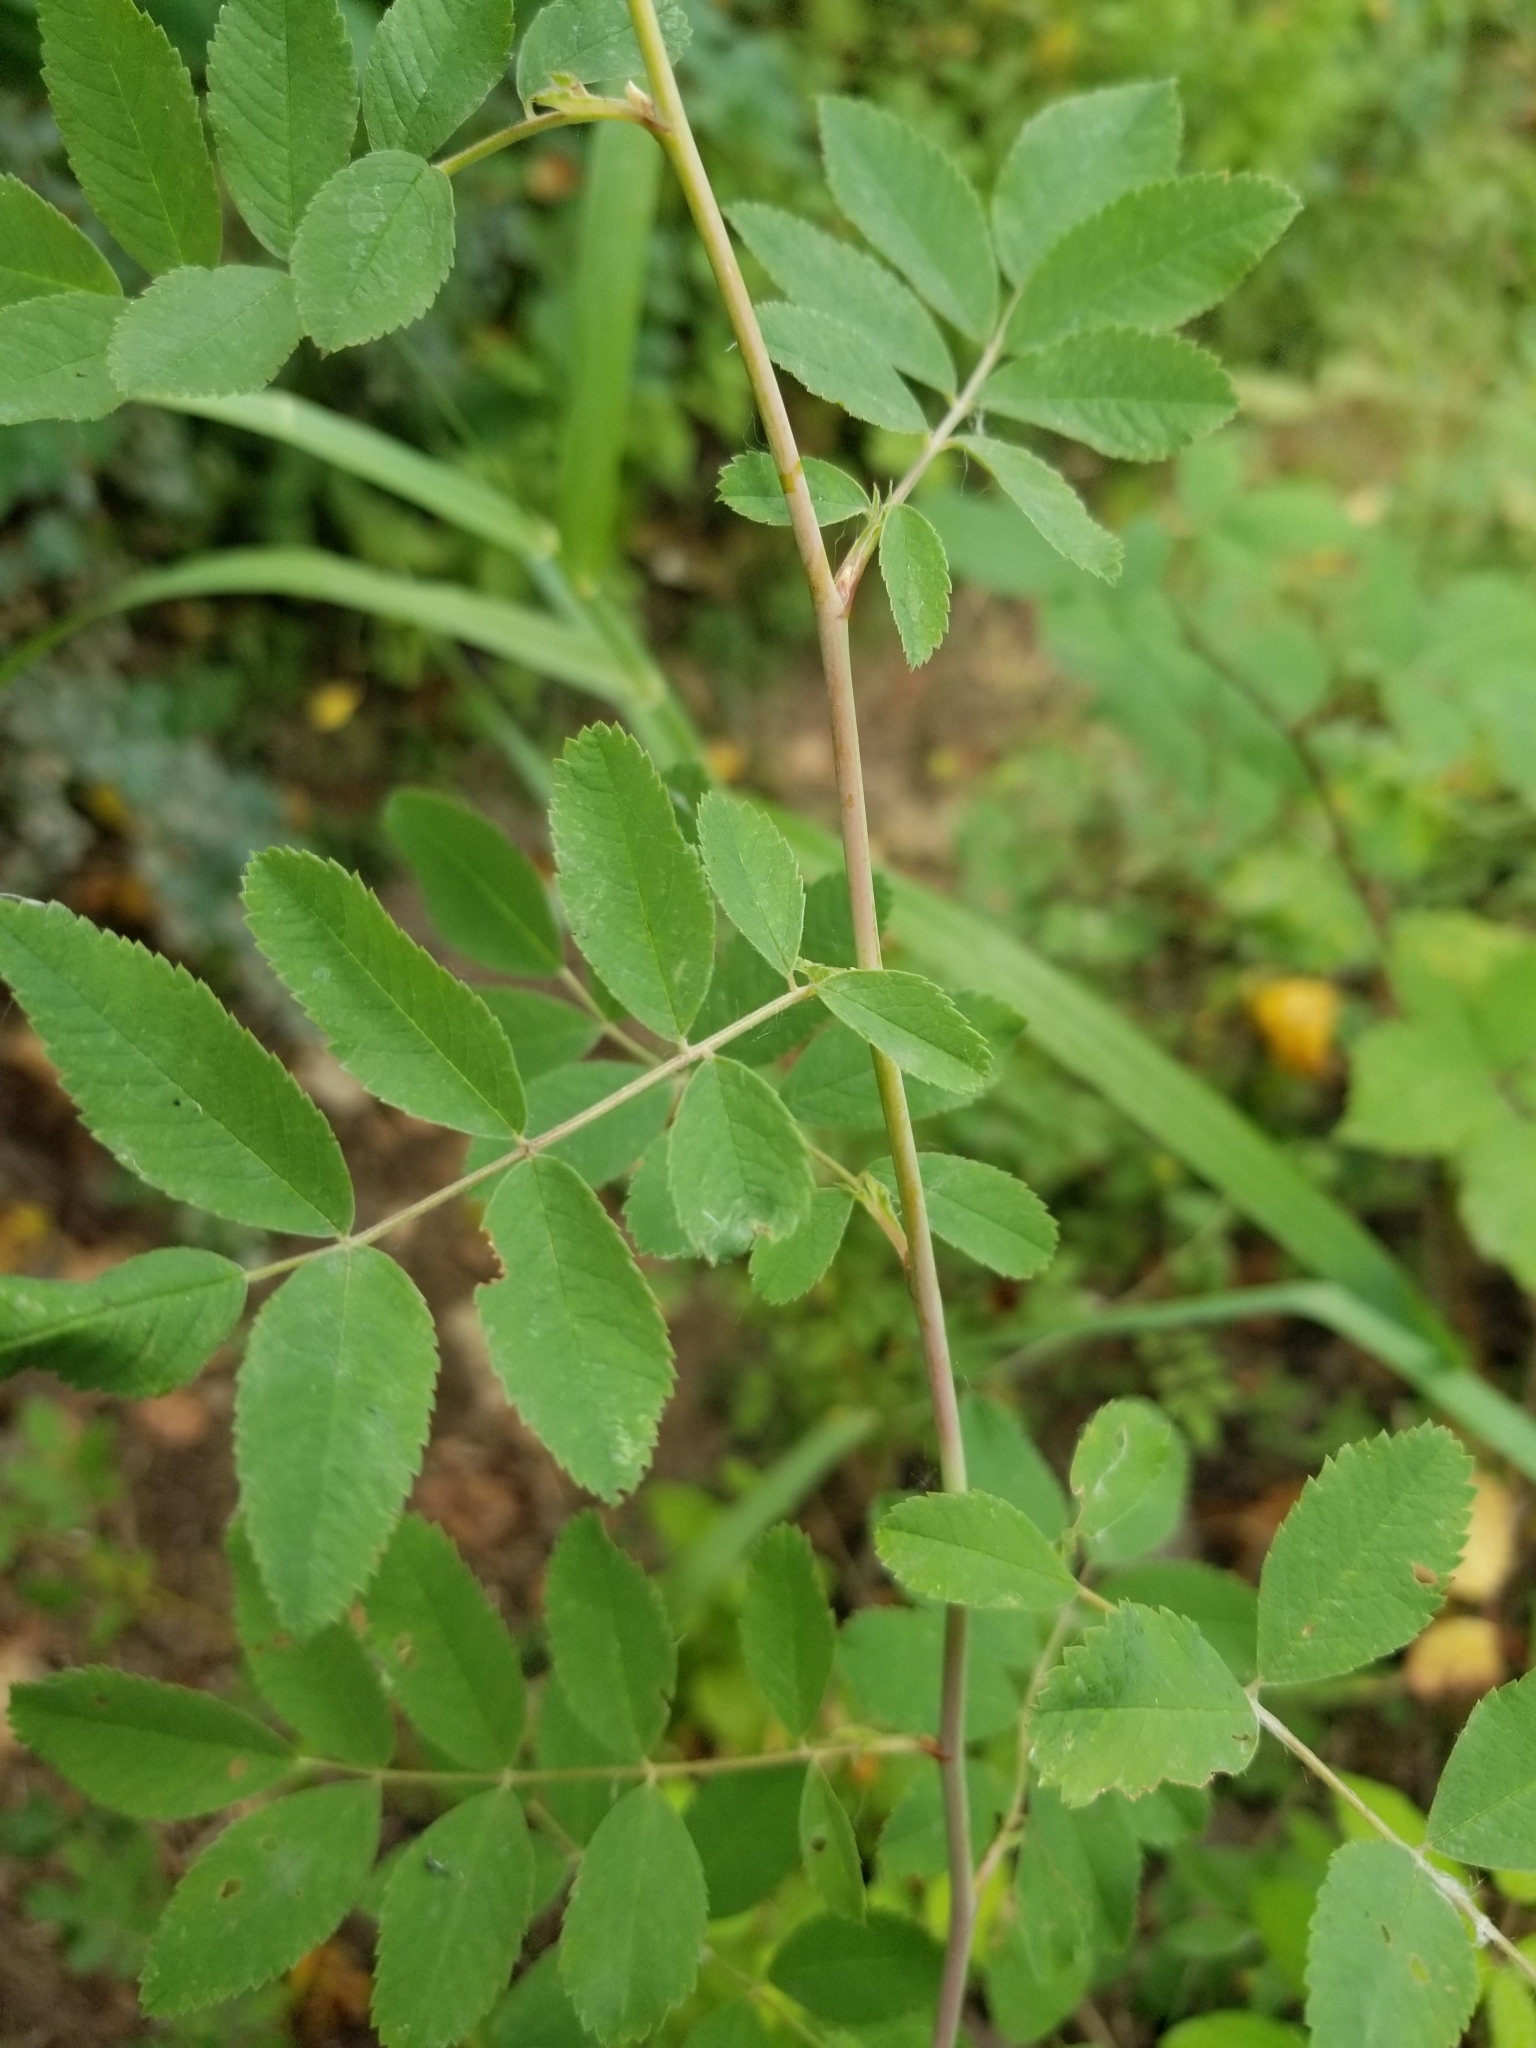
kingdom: Plantae
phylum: Tracheophyta
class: Magnoliopsida
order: Rosales
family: Rosaceae
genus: Rosa
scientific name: Rosa gymnocarpa
